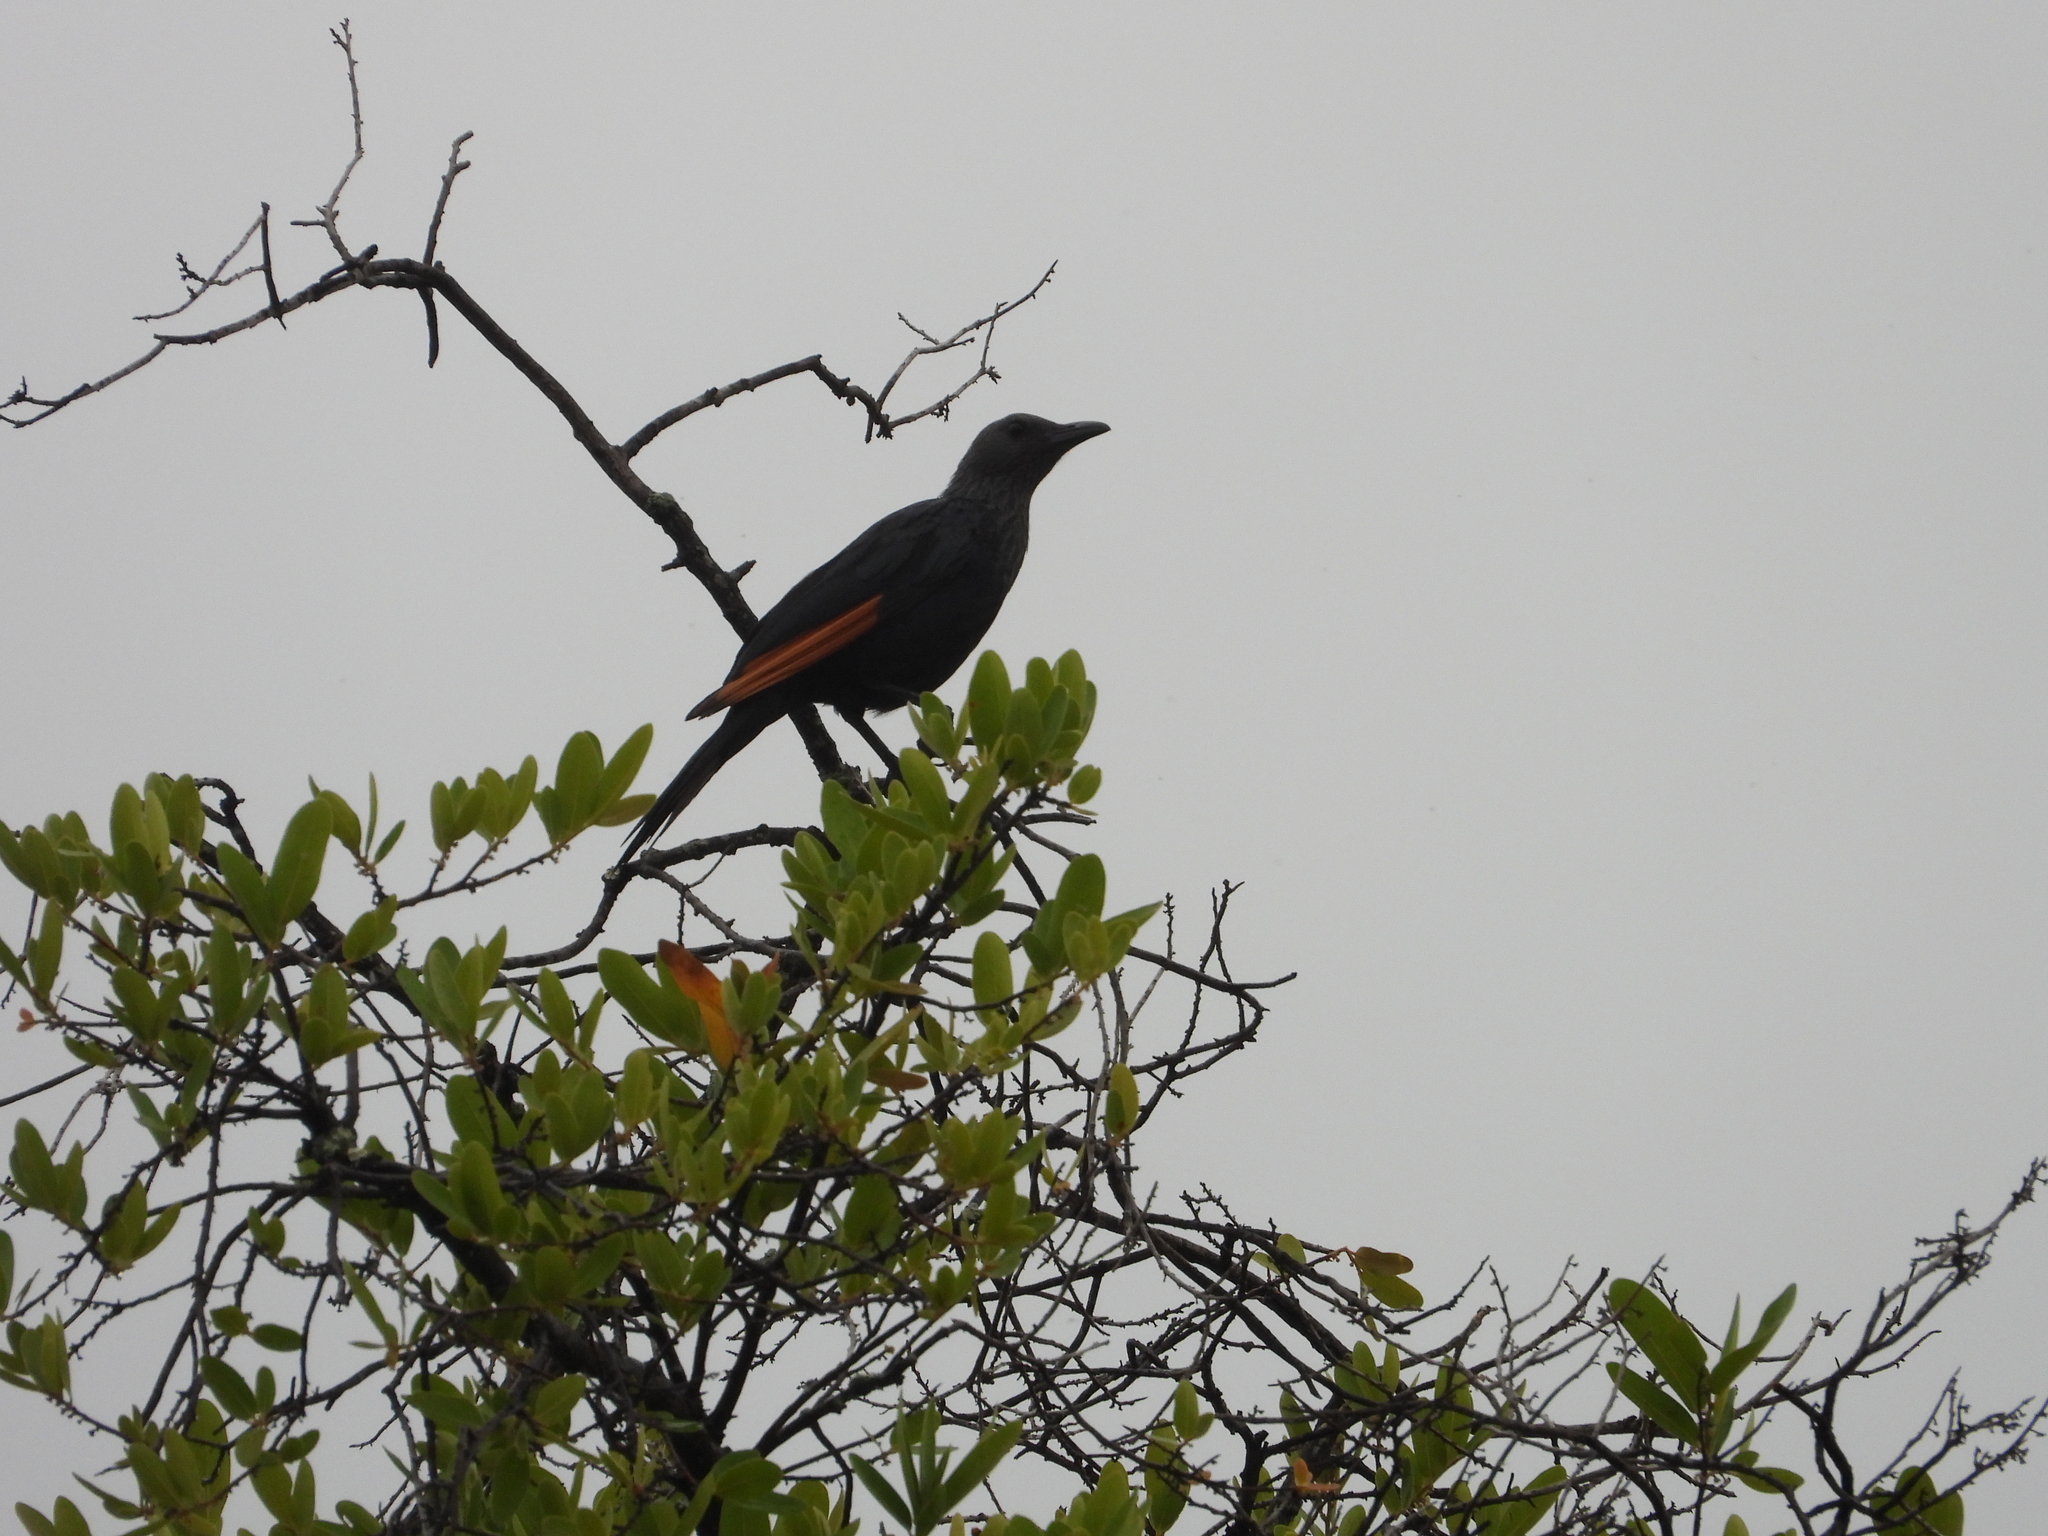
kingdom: Animalia
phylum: Chordata
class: Aves
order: Passeriformes
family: Sturnidae
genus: Onychognathus
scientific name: Onychognathus morio
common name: Red-winged starling
